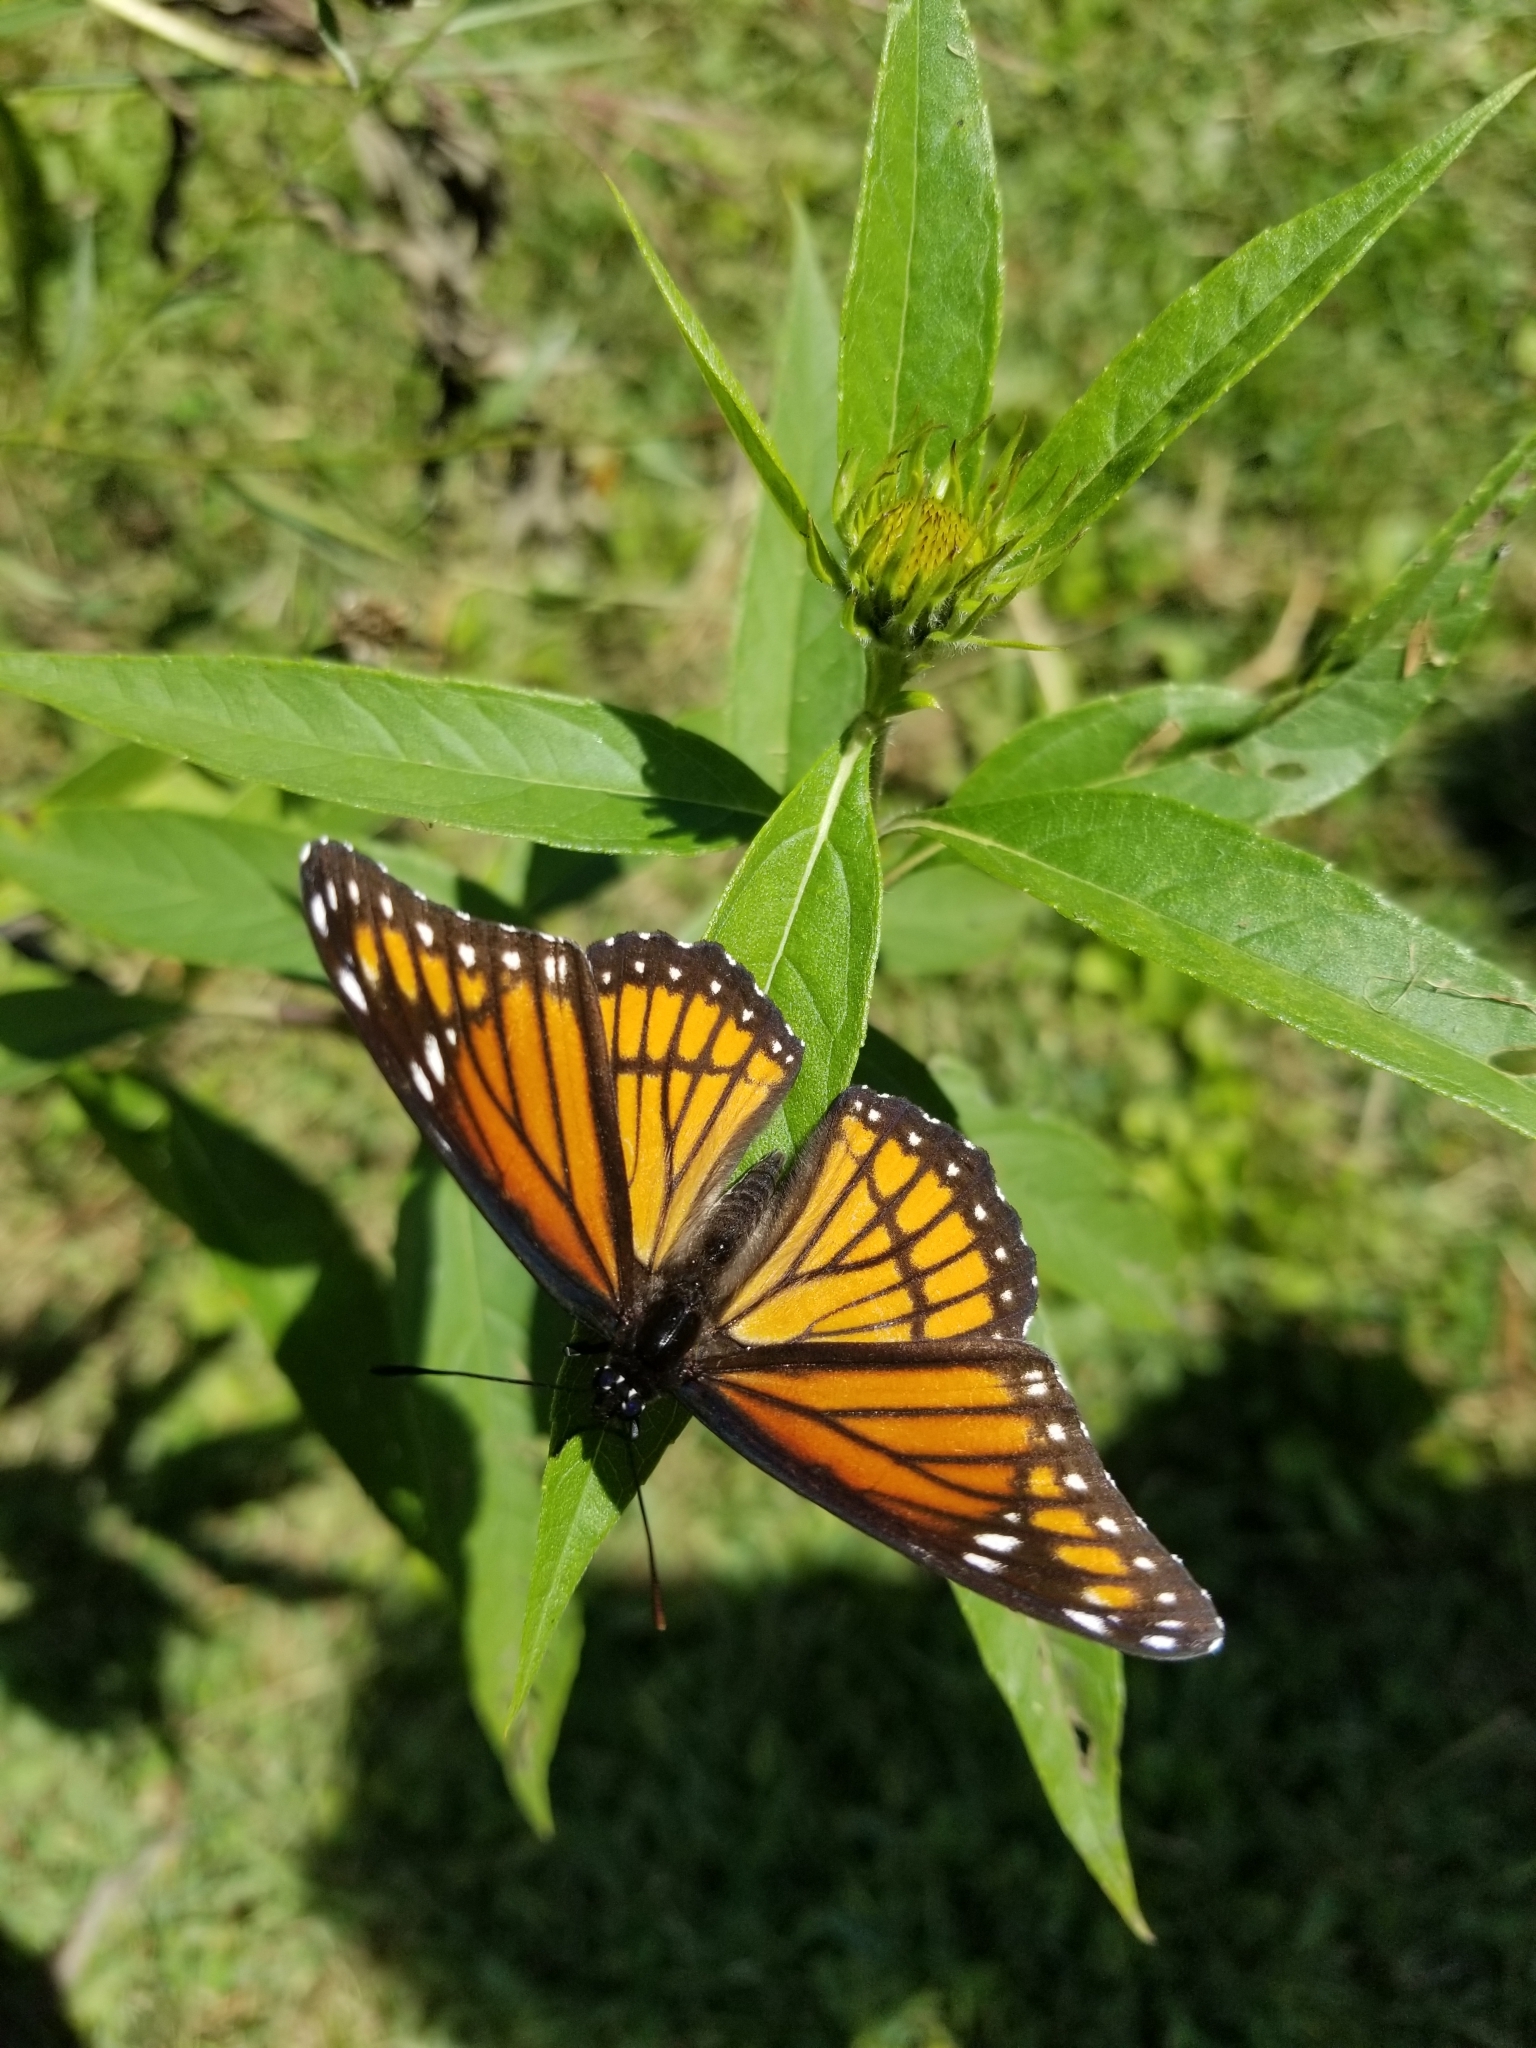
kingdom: Animalia
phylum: Arthropoda
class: Insecta
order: Lepidoptera
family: Nymphalidae
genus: Limenitis
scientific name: Limenitis archippus
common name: Viceroy
